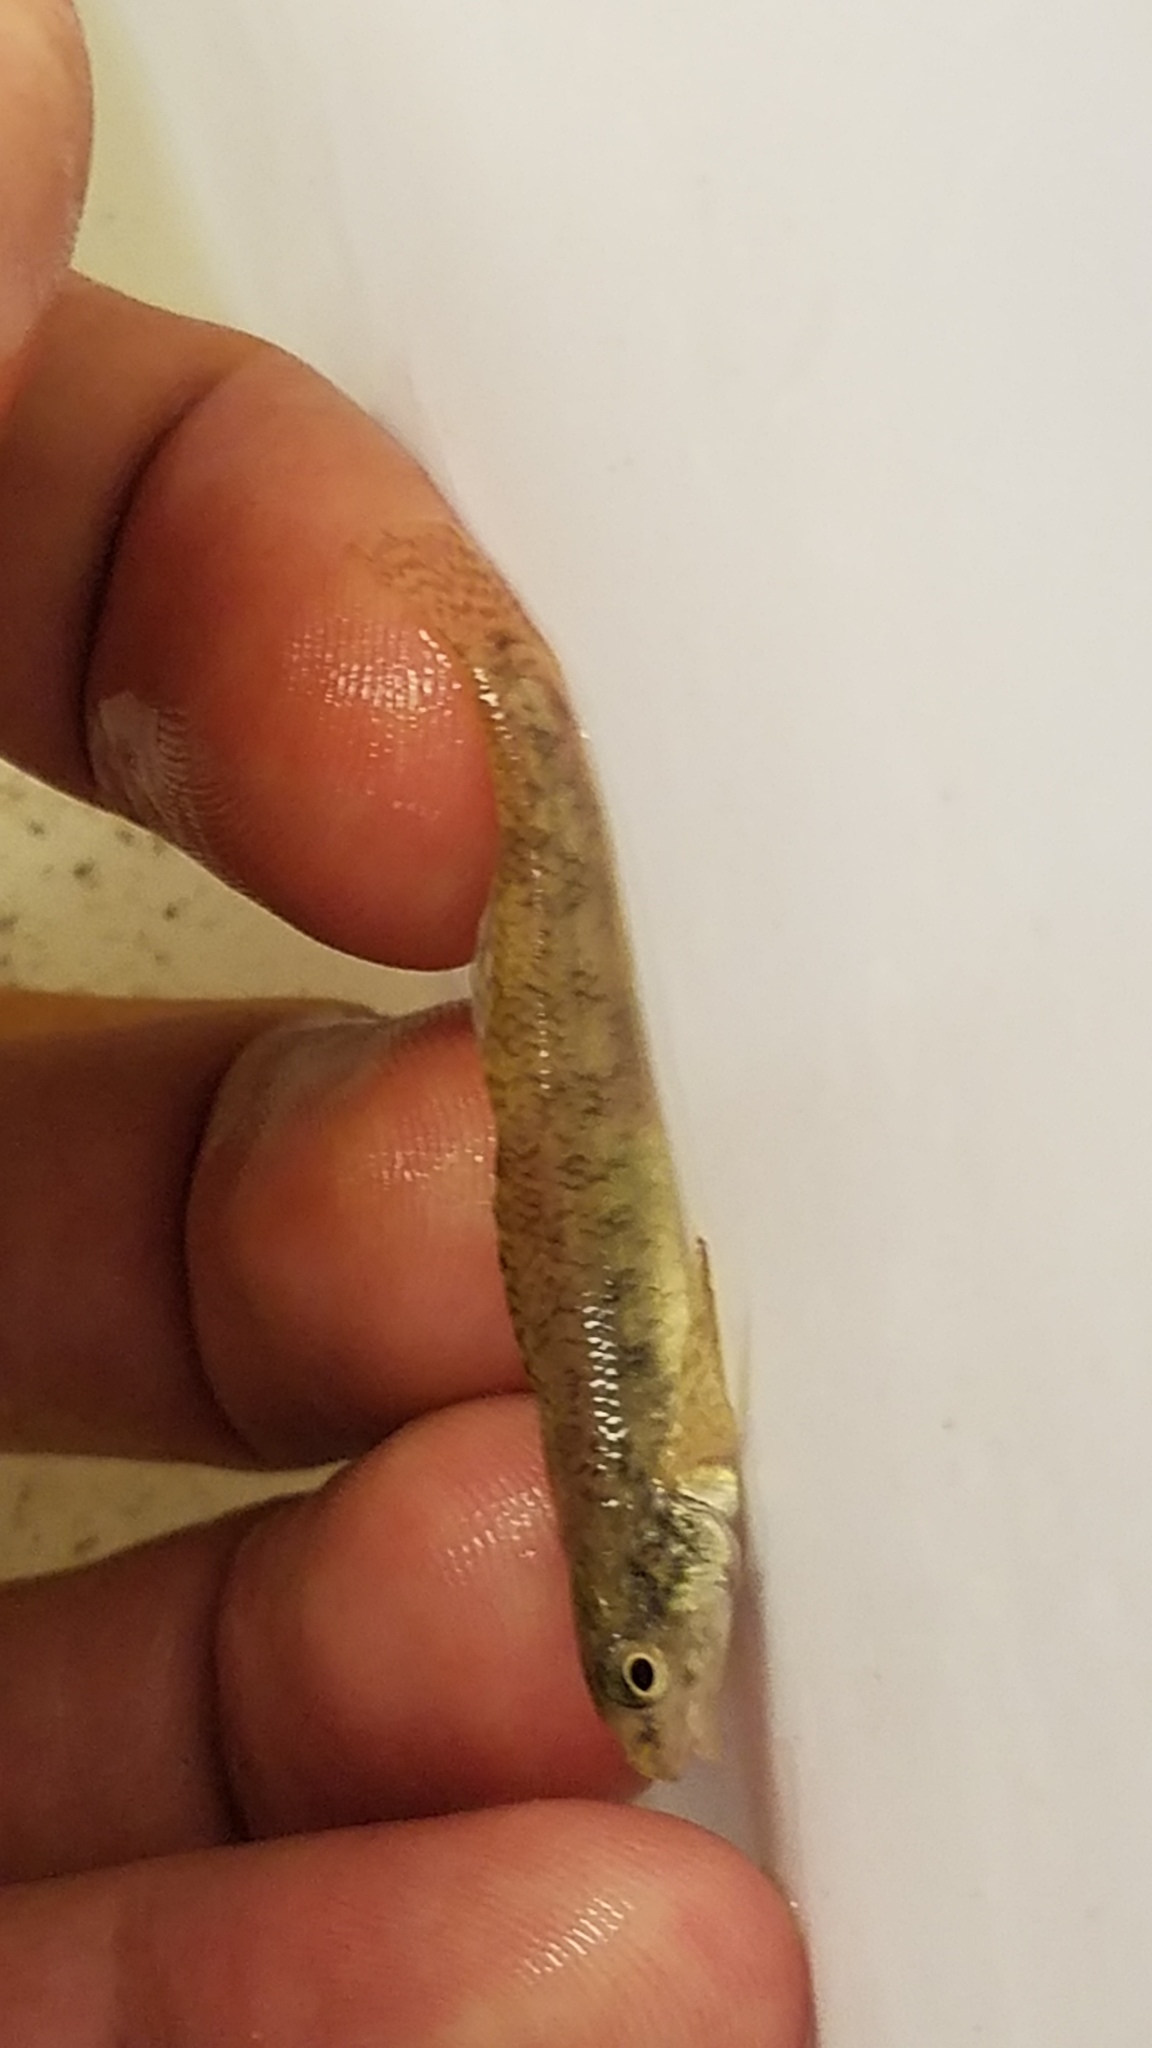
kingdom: Animalia
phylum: Chordata
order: Perciformes
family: Percidae
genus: Etheostoma
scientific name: Etheostoma nigrum
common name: Johnny darter
